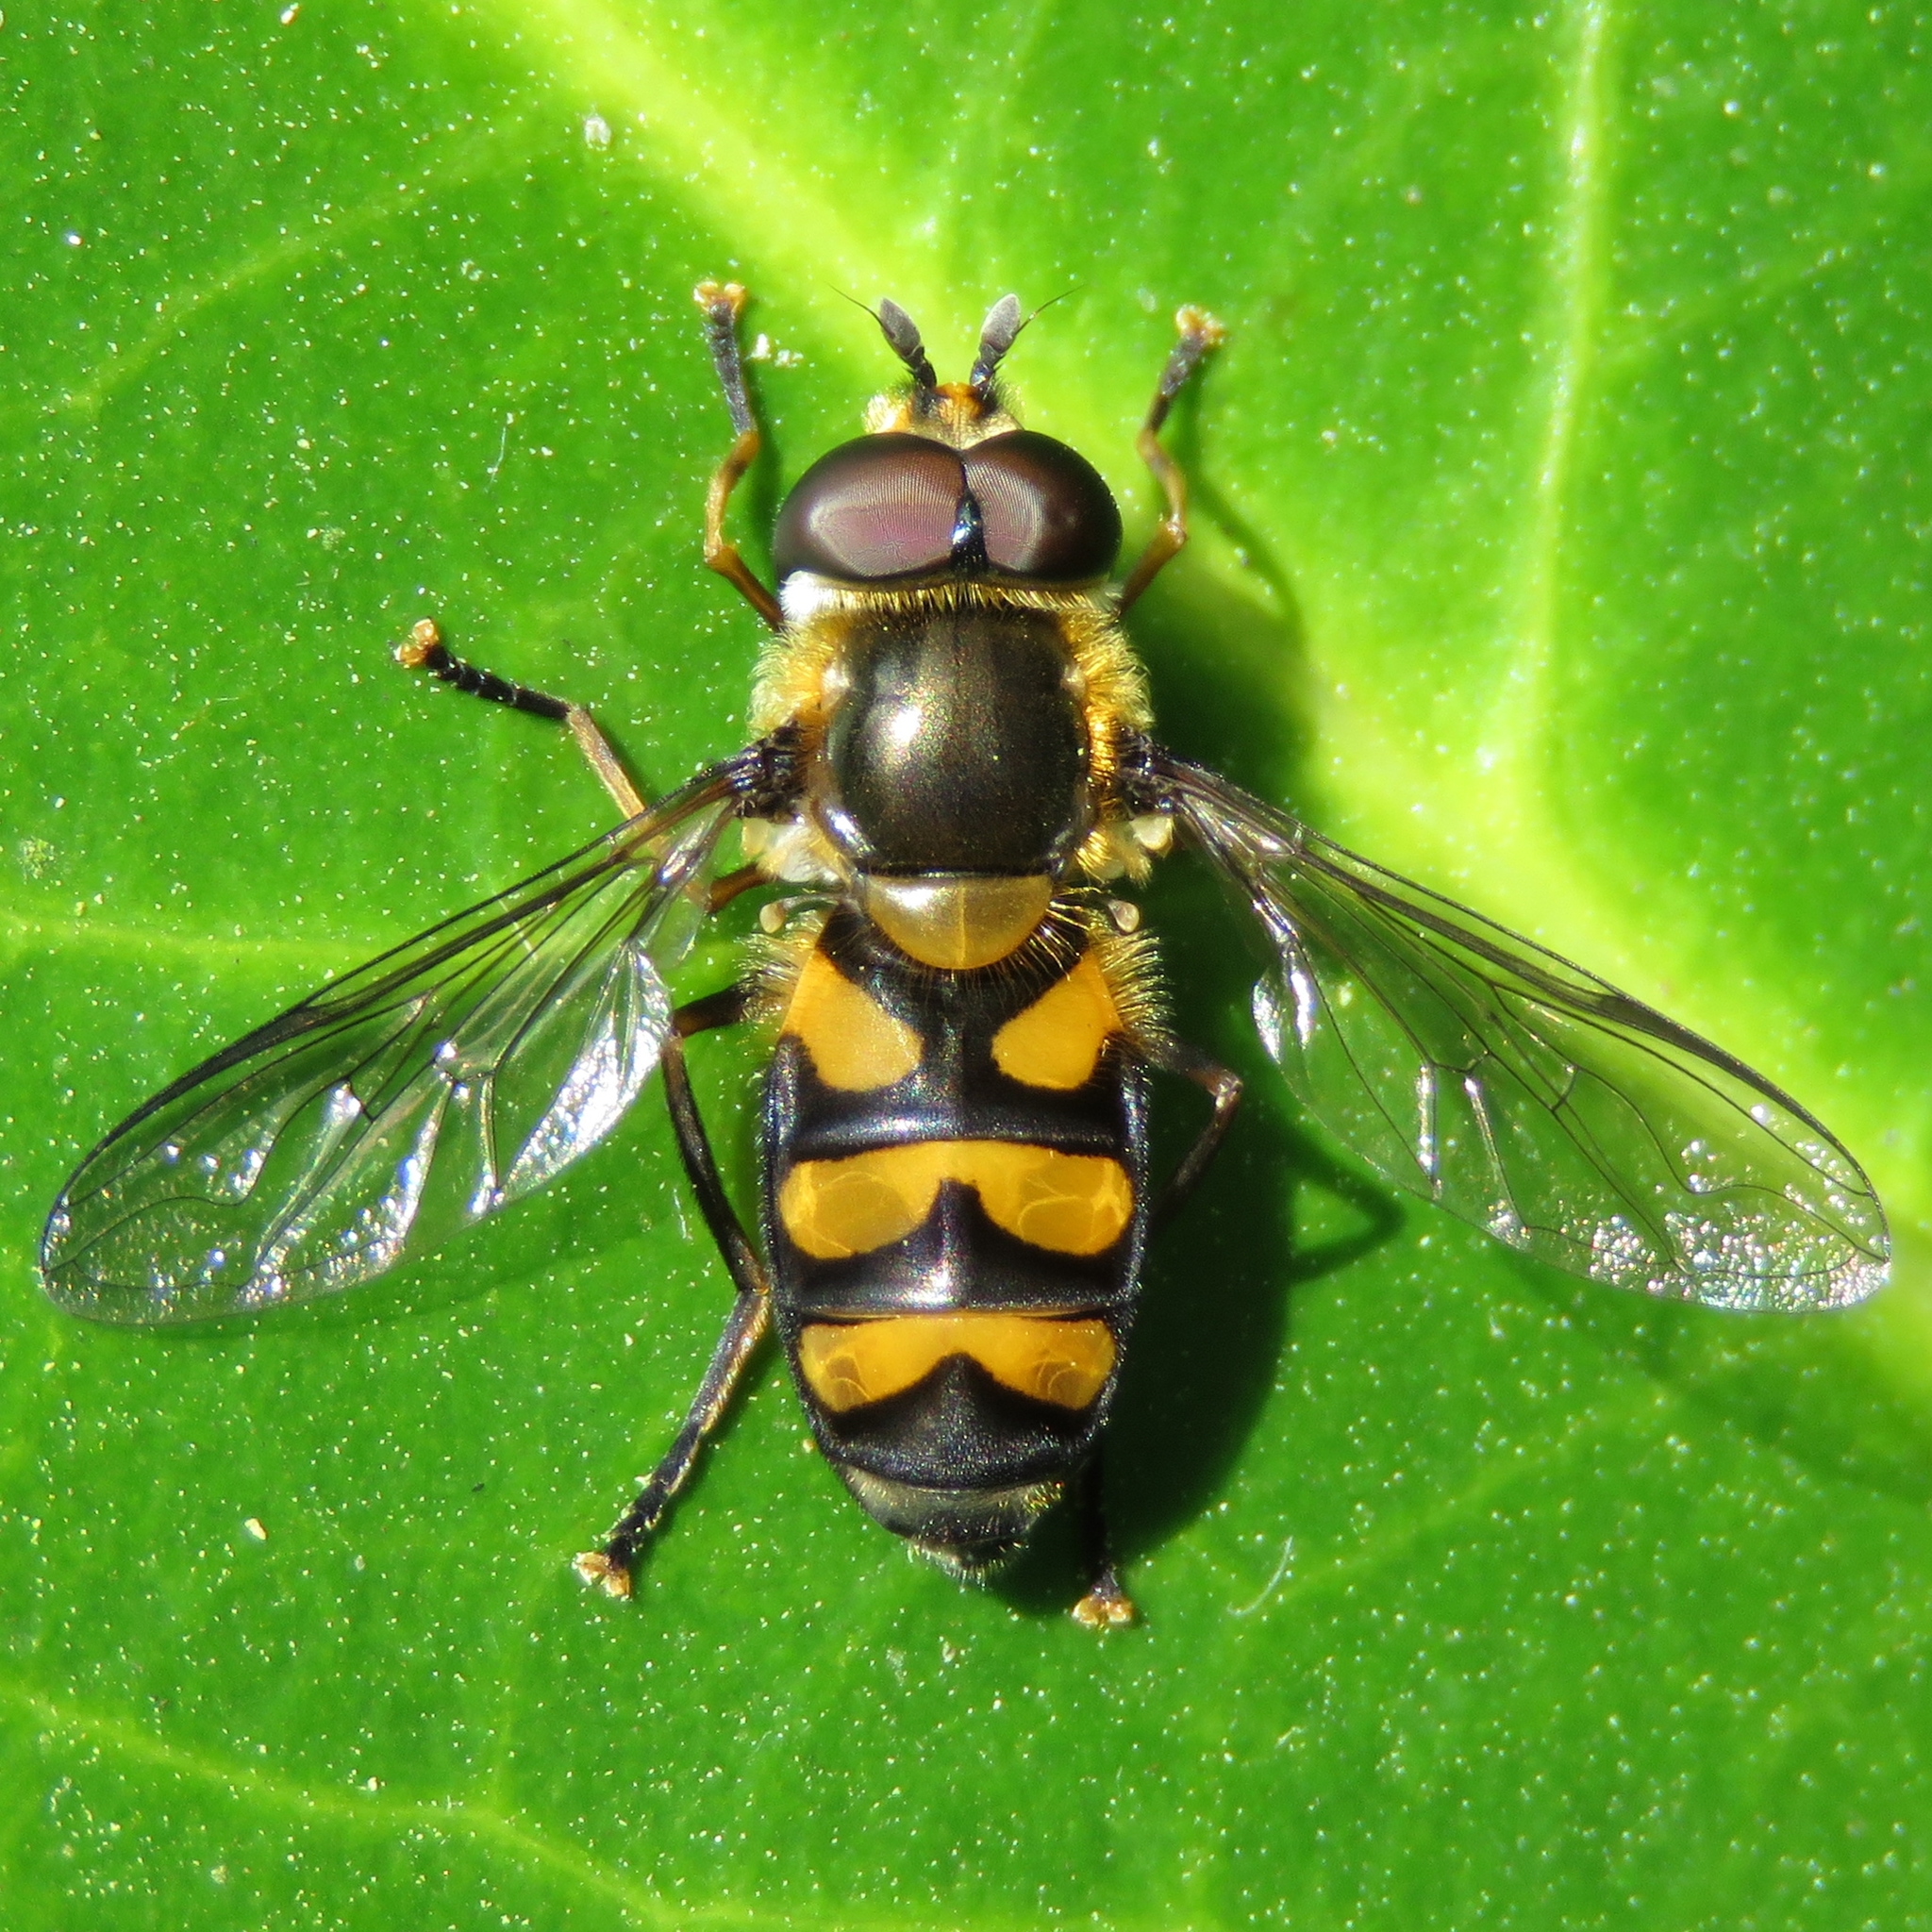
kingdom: Animalia
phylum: Arthropoda
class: Insecta
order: Diptera
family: Syrphidae
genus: Didea
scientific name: Didea fasciata
